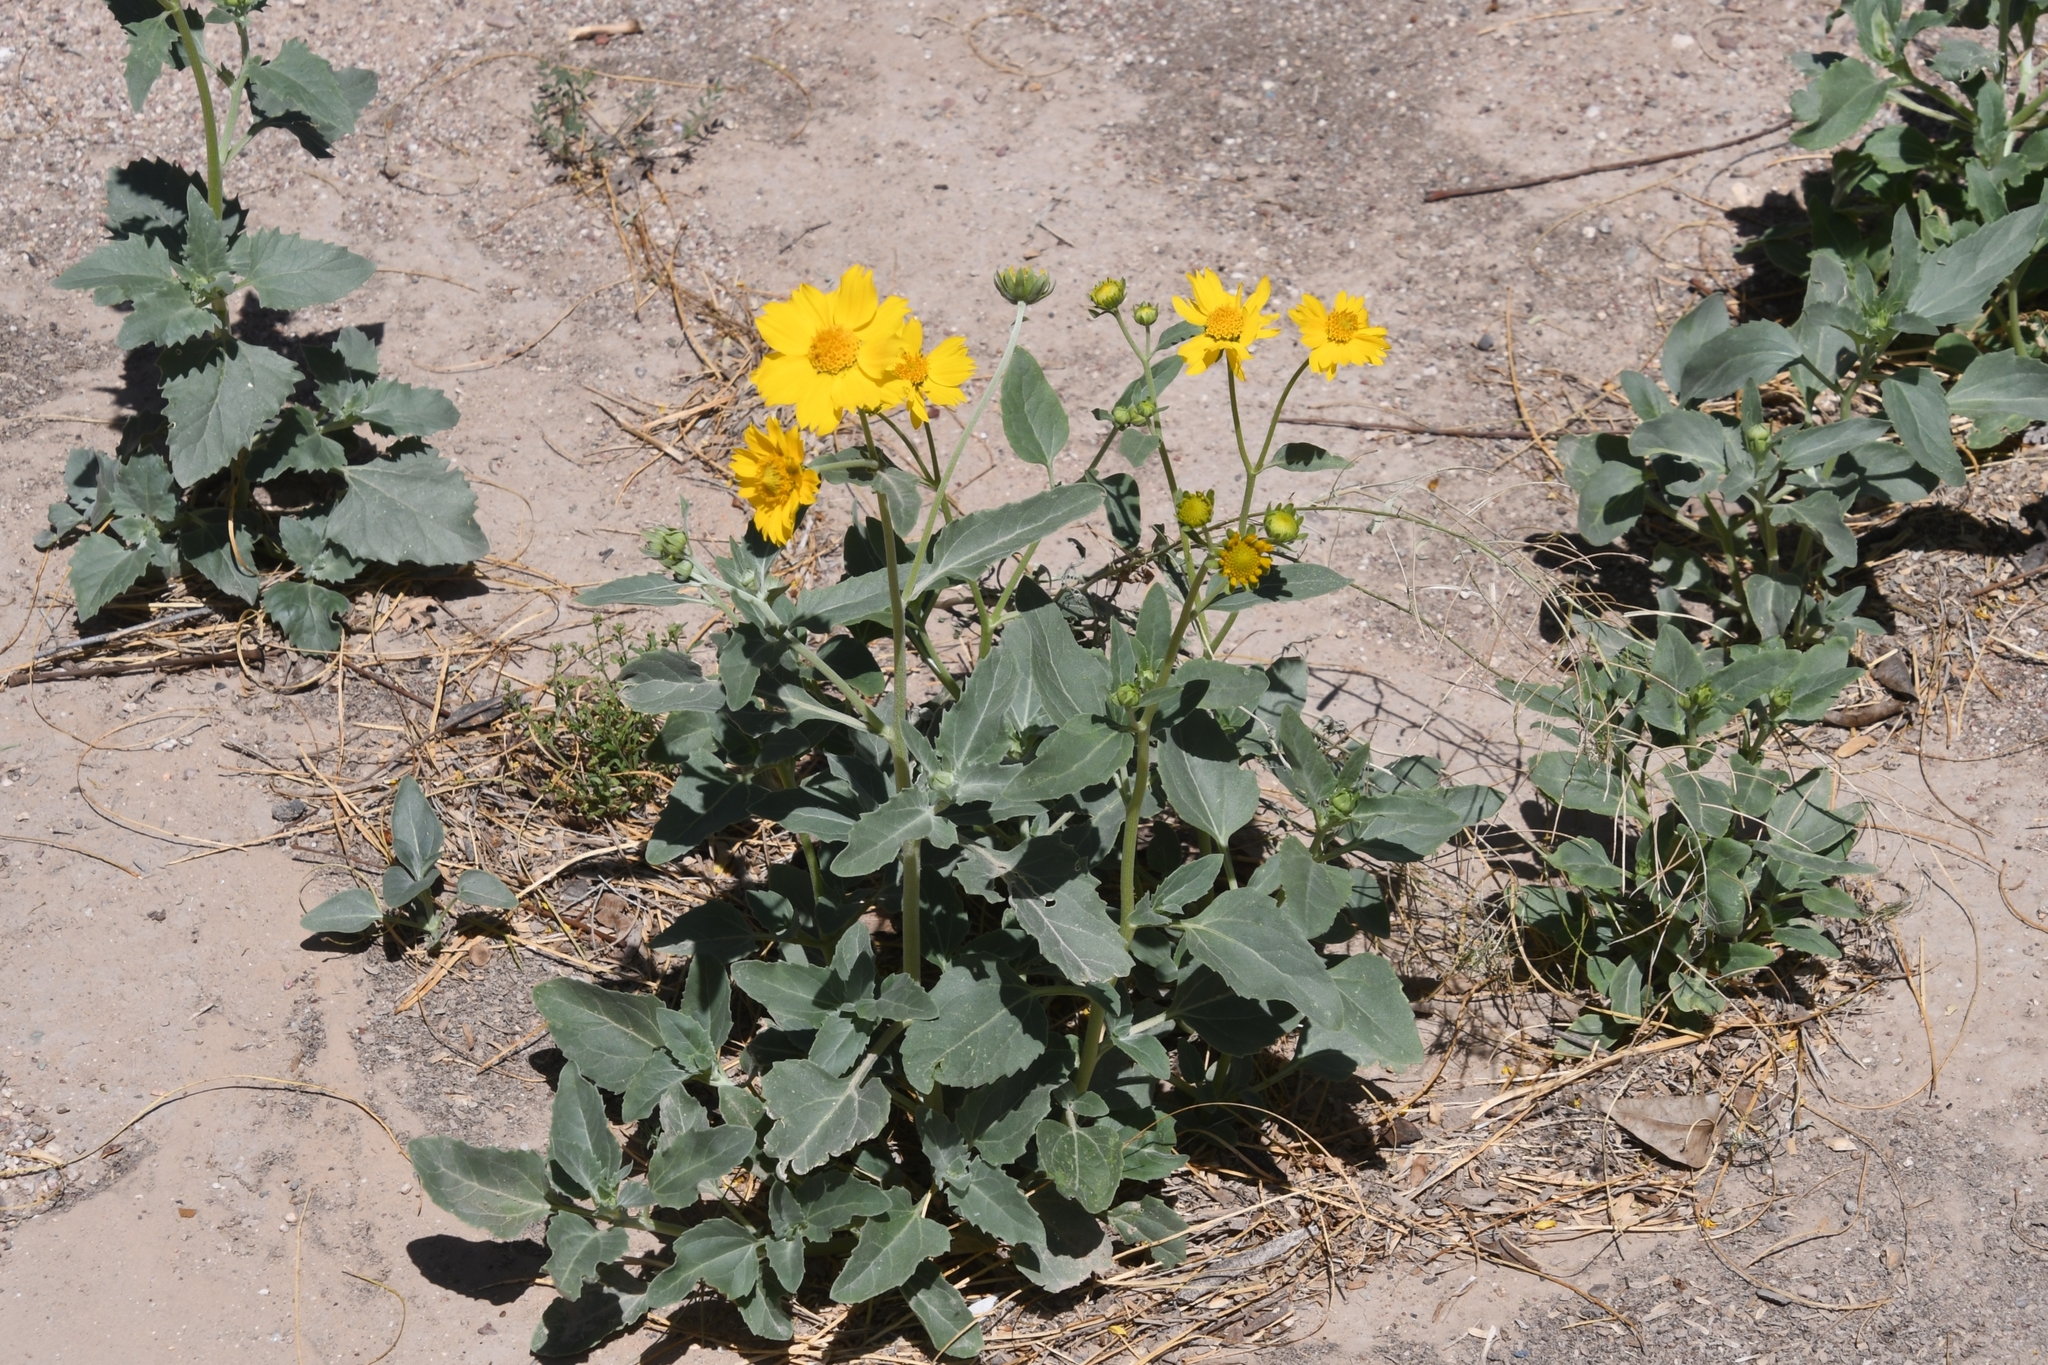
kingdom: Plantae
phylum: Tracheophyta
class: Magnoliopsida
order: Asterales
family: Asteraceae
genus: Verbesina
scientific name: Verbesina encelioides
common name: Golden crownbeard
